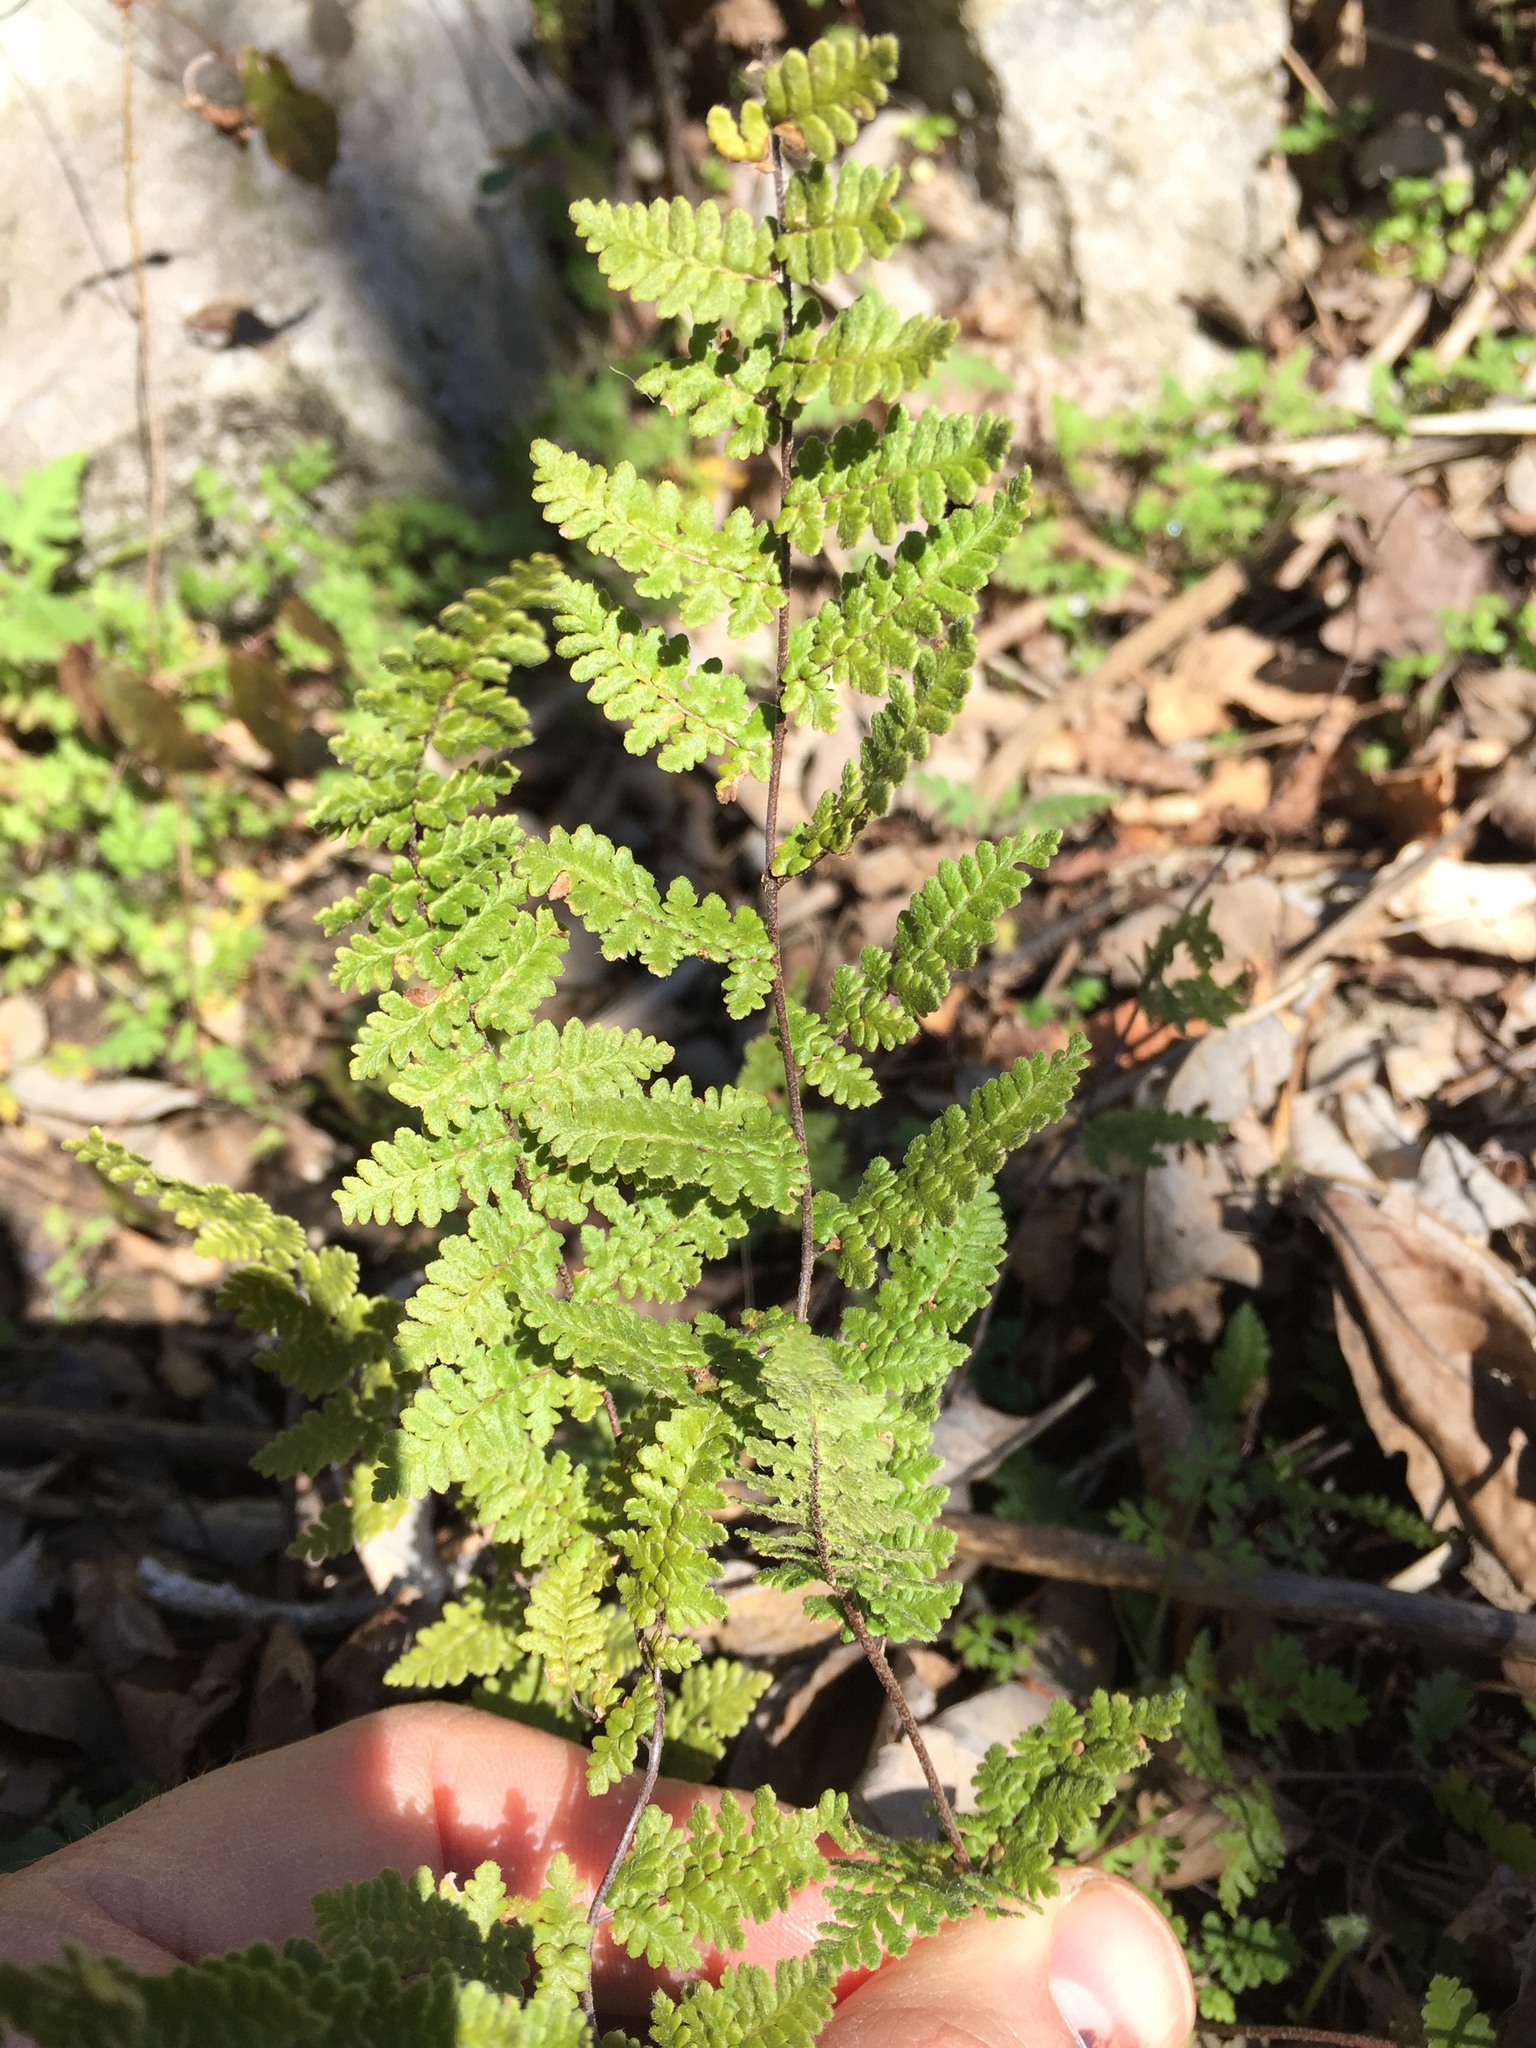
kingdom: Plantae
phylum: Tracheophyta
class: Polypodiopsida
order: Polypodiales
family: Pteridaceae
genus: Myriopteris
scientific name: Myriopteris lanosa
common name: Hairy lip fern
